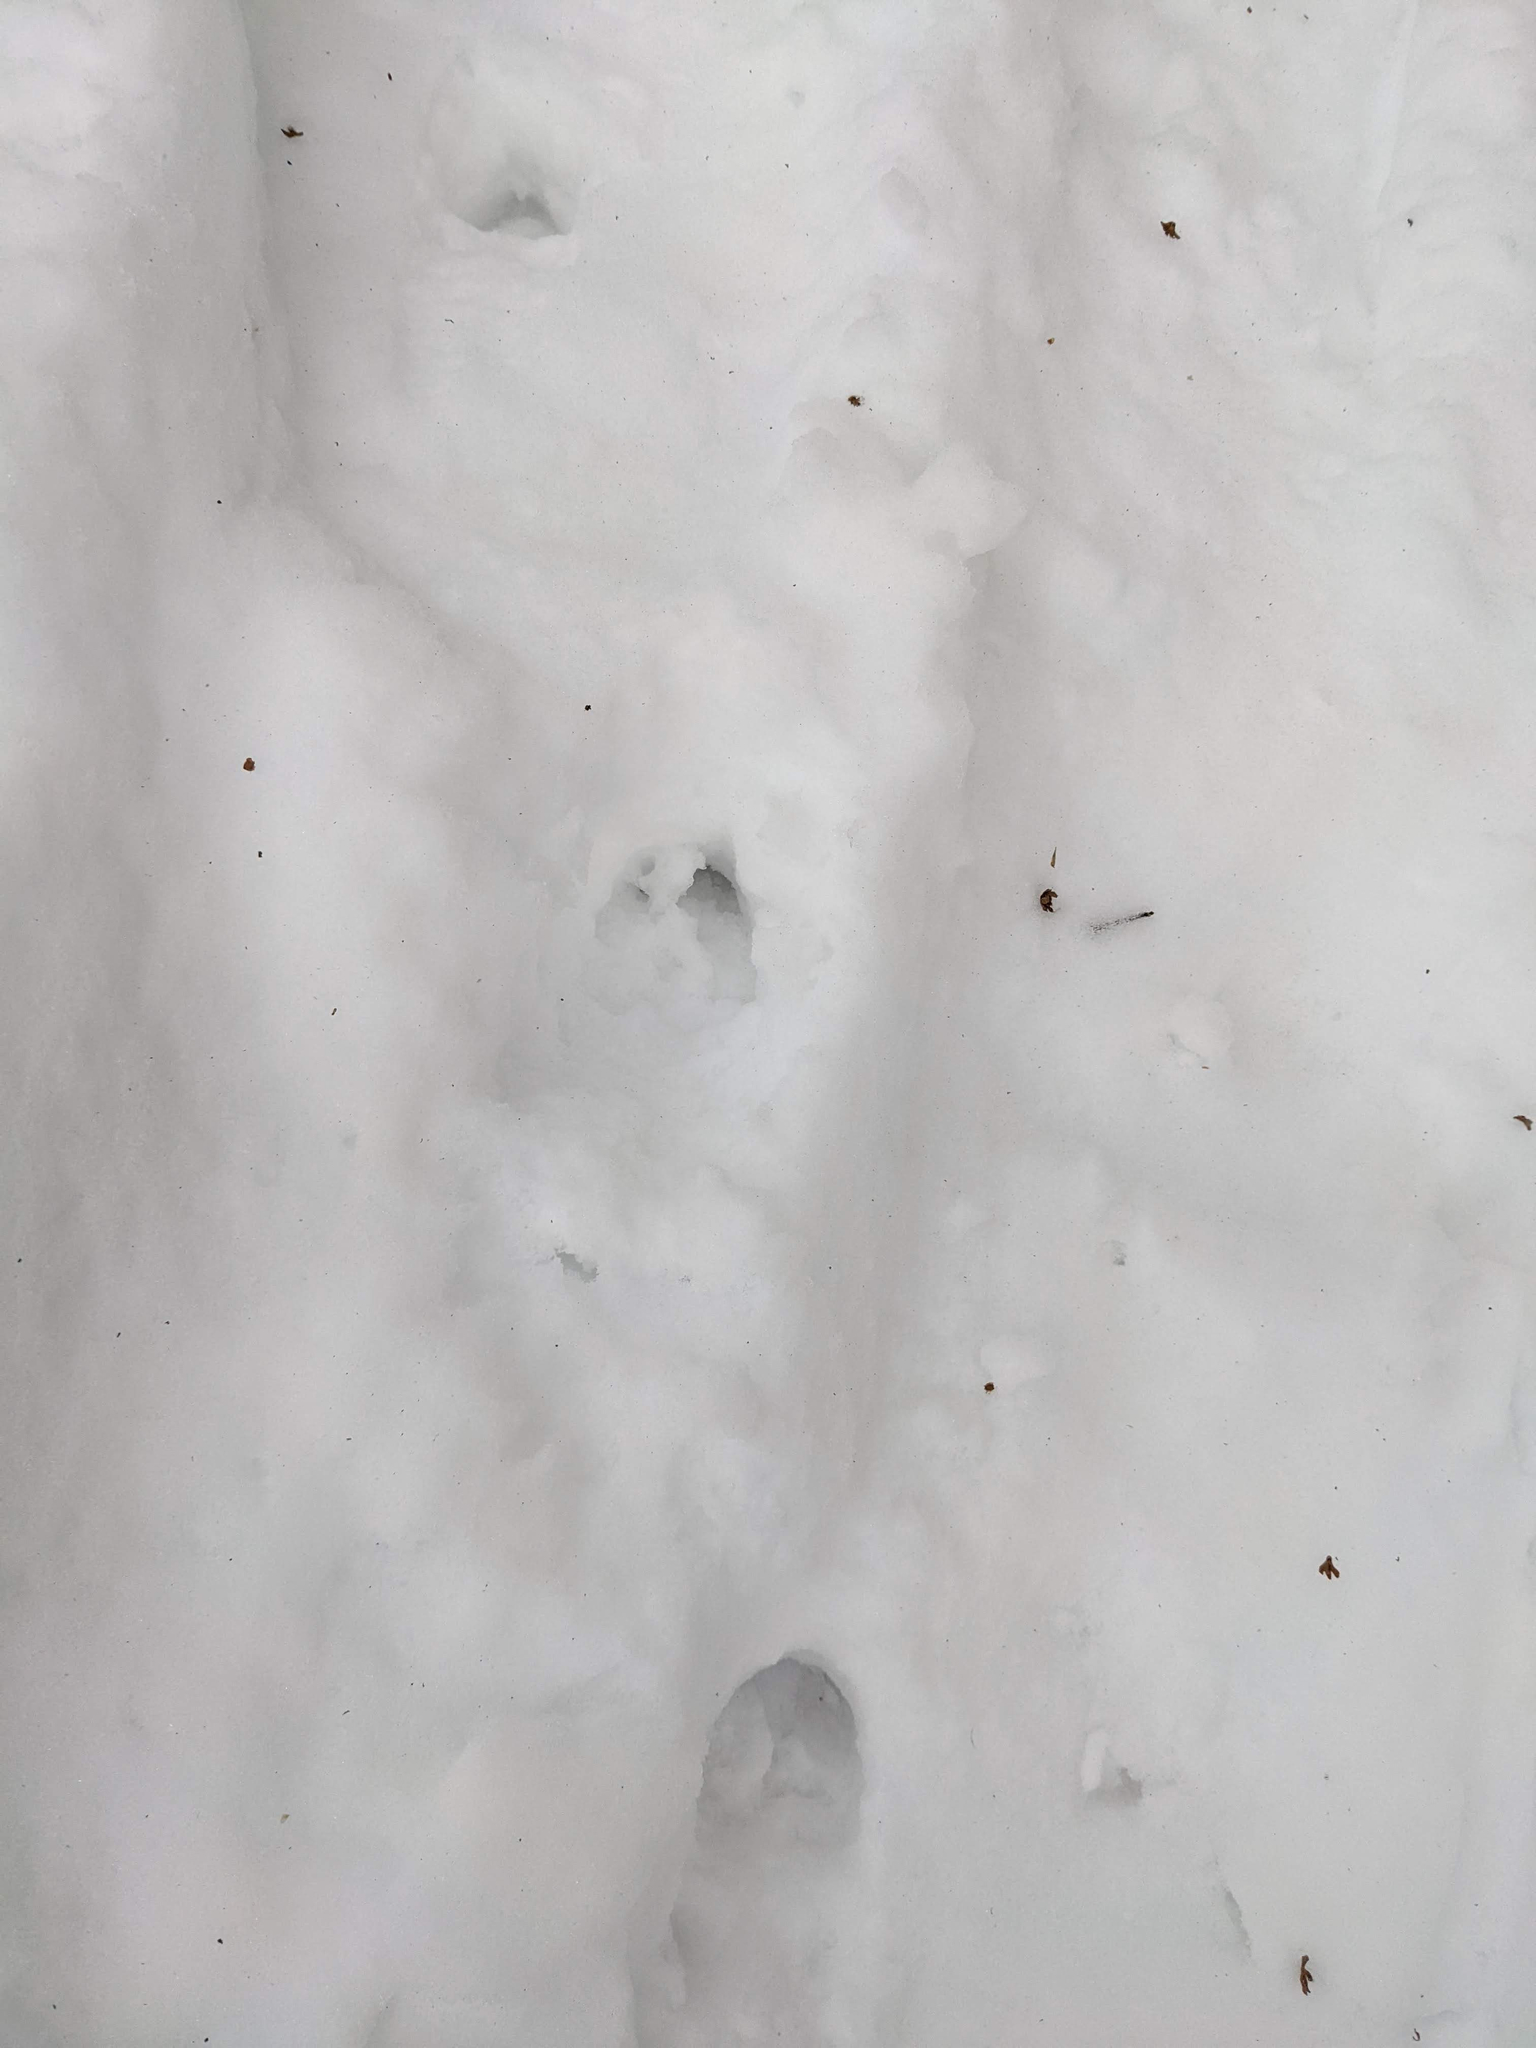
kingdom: Animalia
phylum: Chordata
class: Mammalia
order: Artiodactyla
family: Cervidae
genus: Odocoileus
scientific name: Odocoileus virginianus
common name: White-tailed deer
